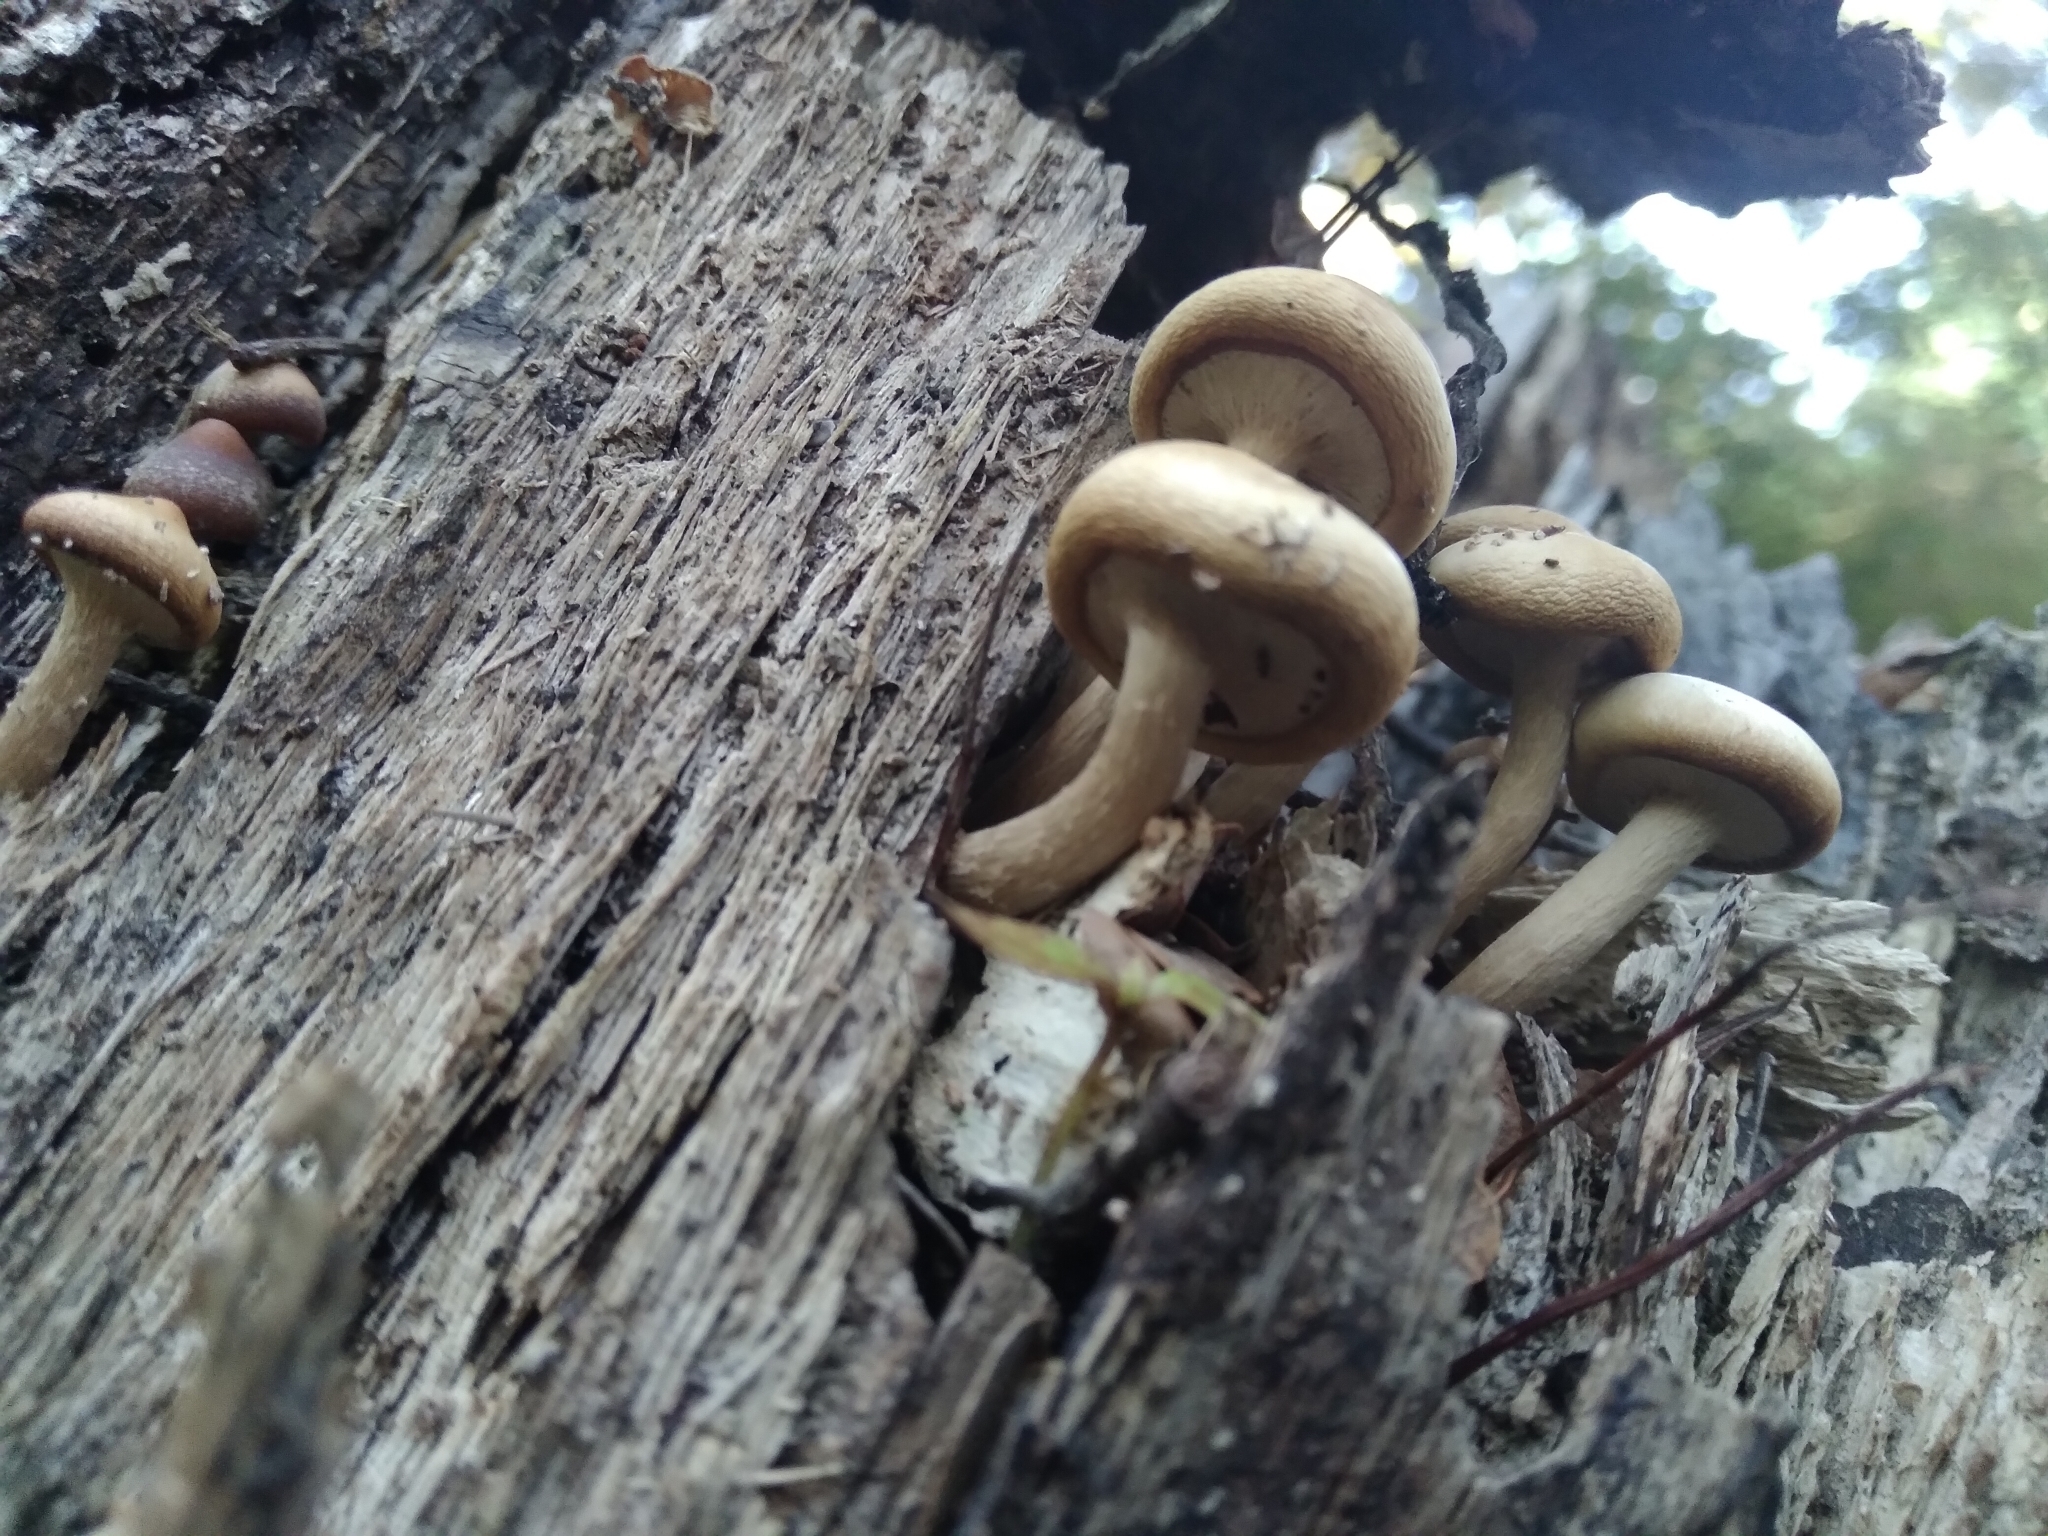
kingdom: Fungi
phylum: Basidiomycota
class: Agaricomycetes
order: Agaricales
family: Tubariaceae
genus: Cyclocybe
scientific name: Cyclocybe parasitica
